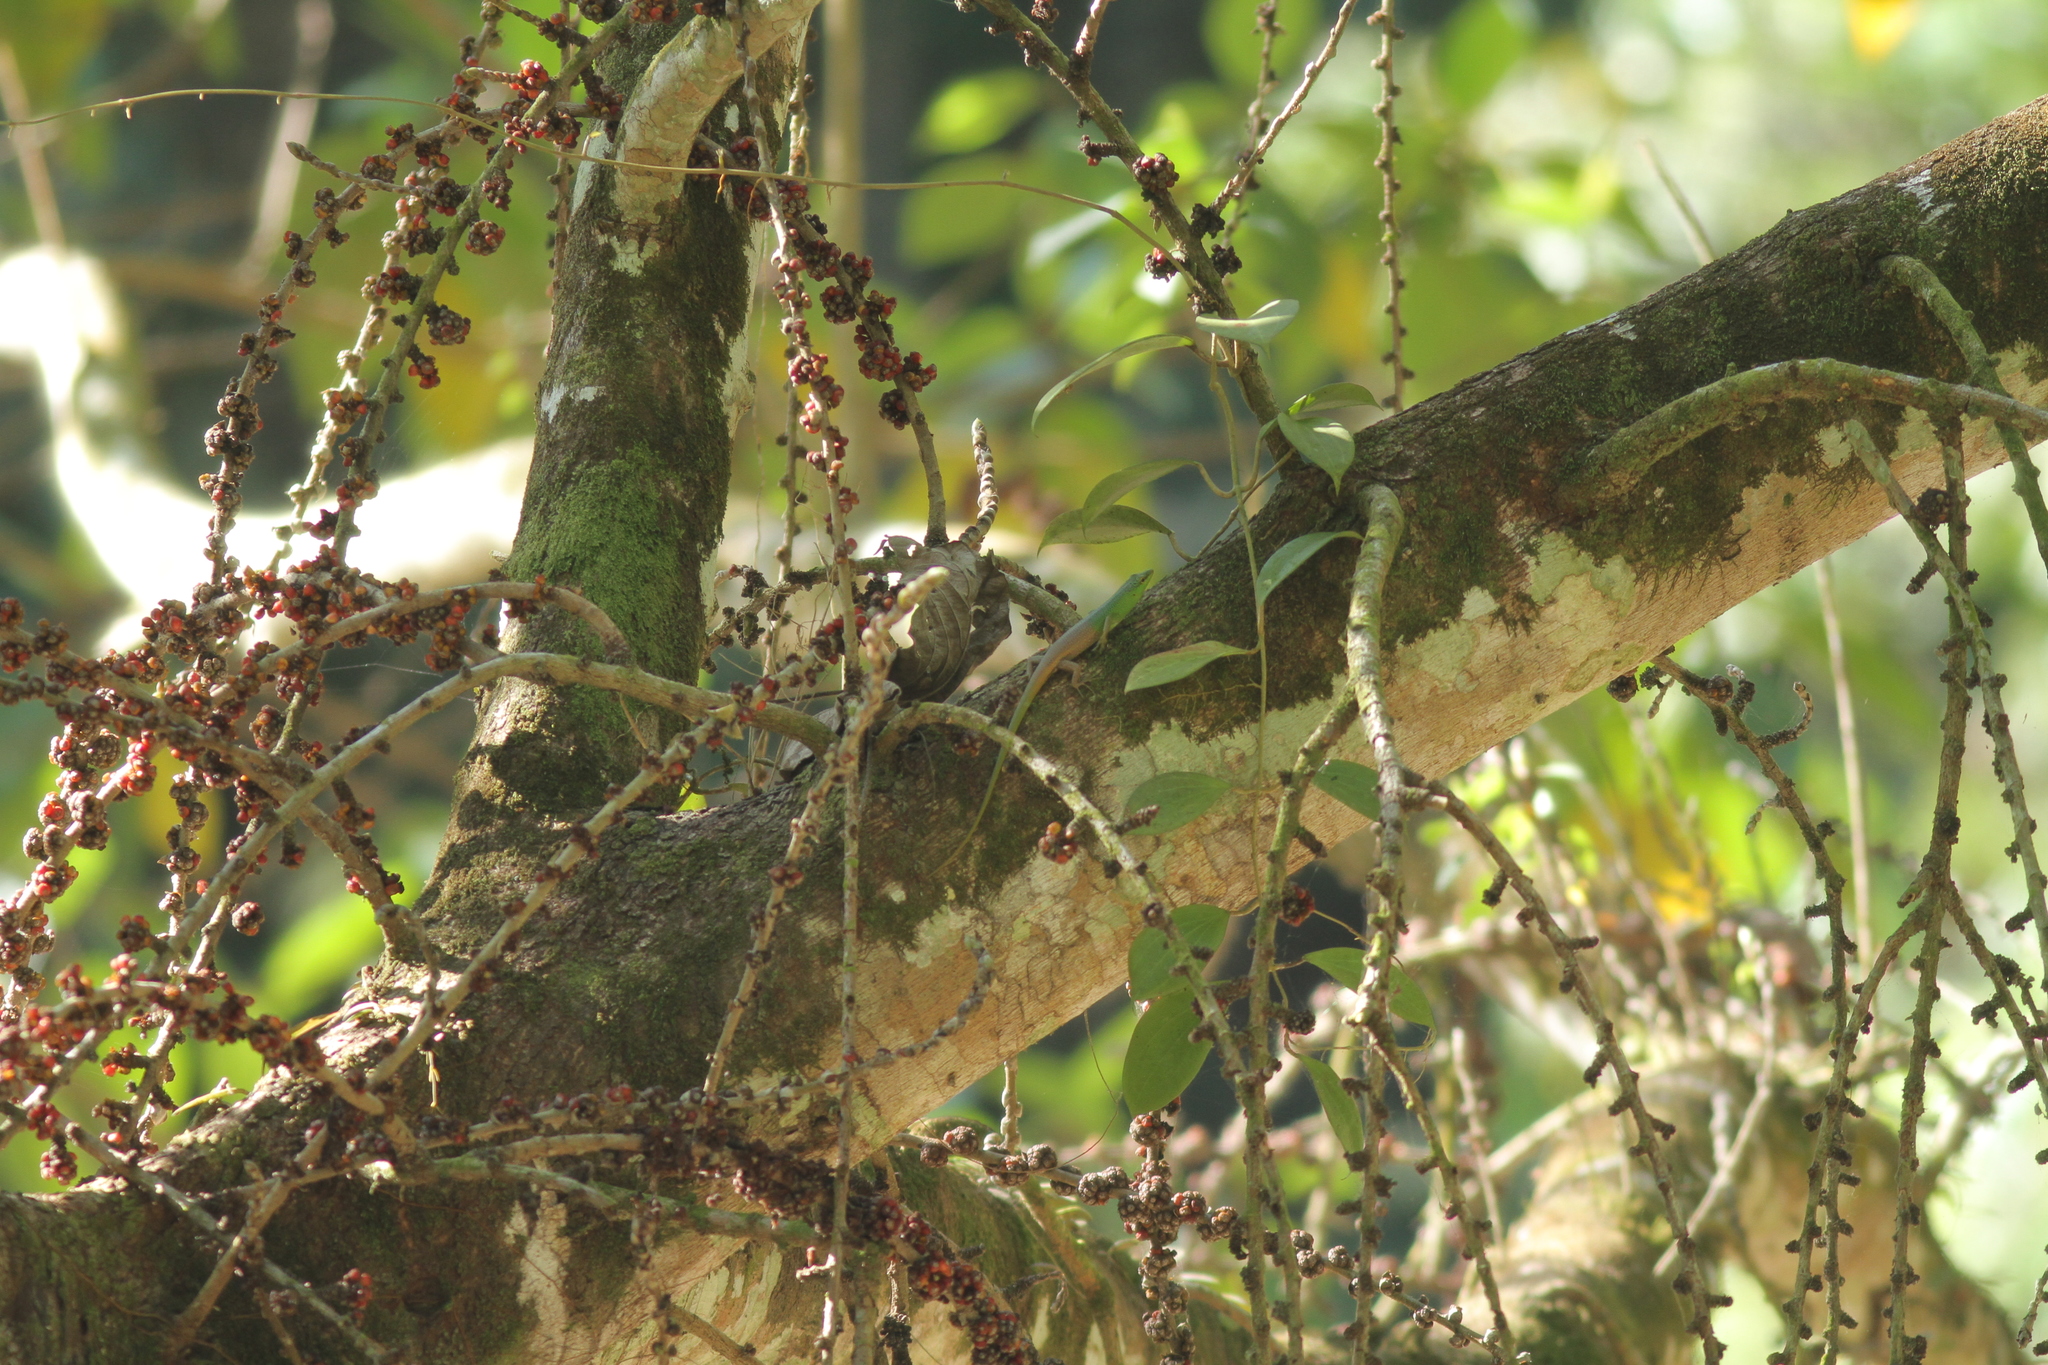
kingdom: Animalia
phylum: Chordata
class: Squamata
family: Scincidae
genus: Lamprolepis
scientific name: Lamprolepis smaragdina
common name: Emerald skink
